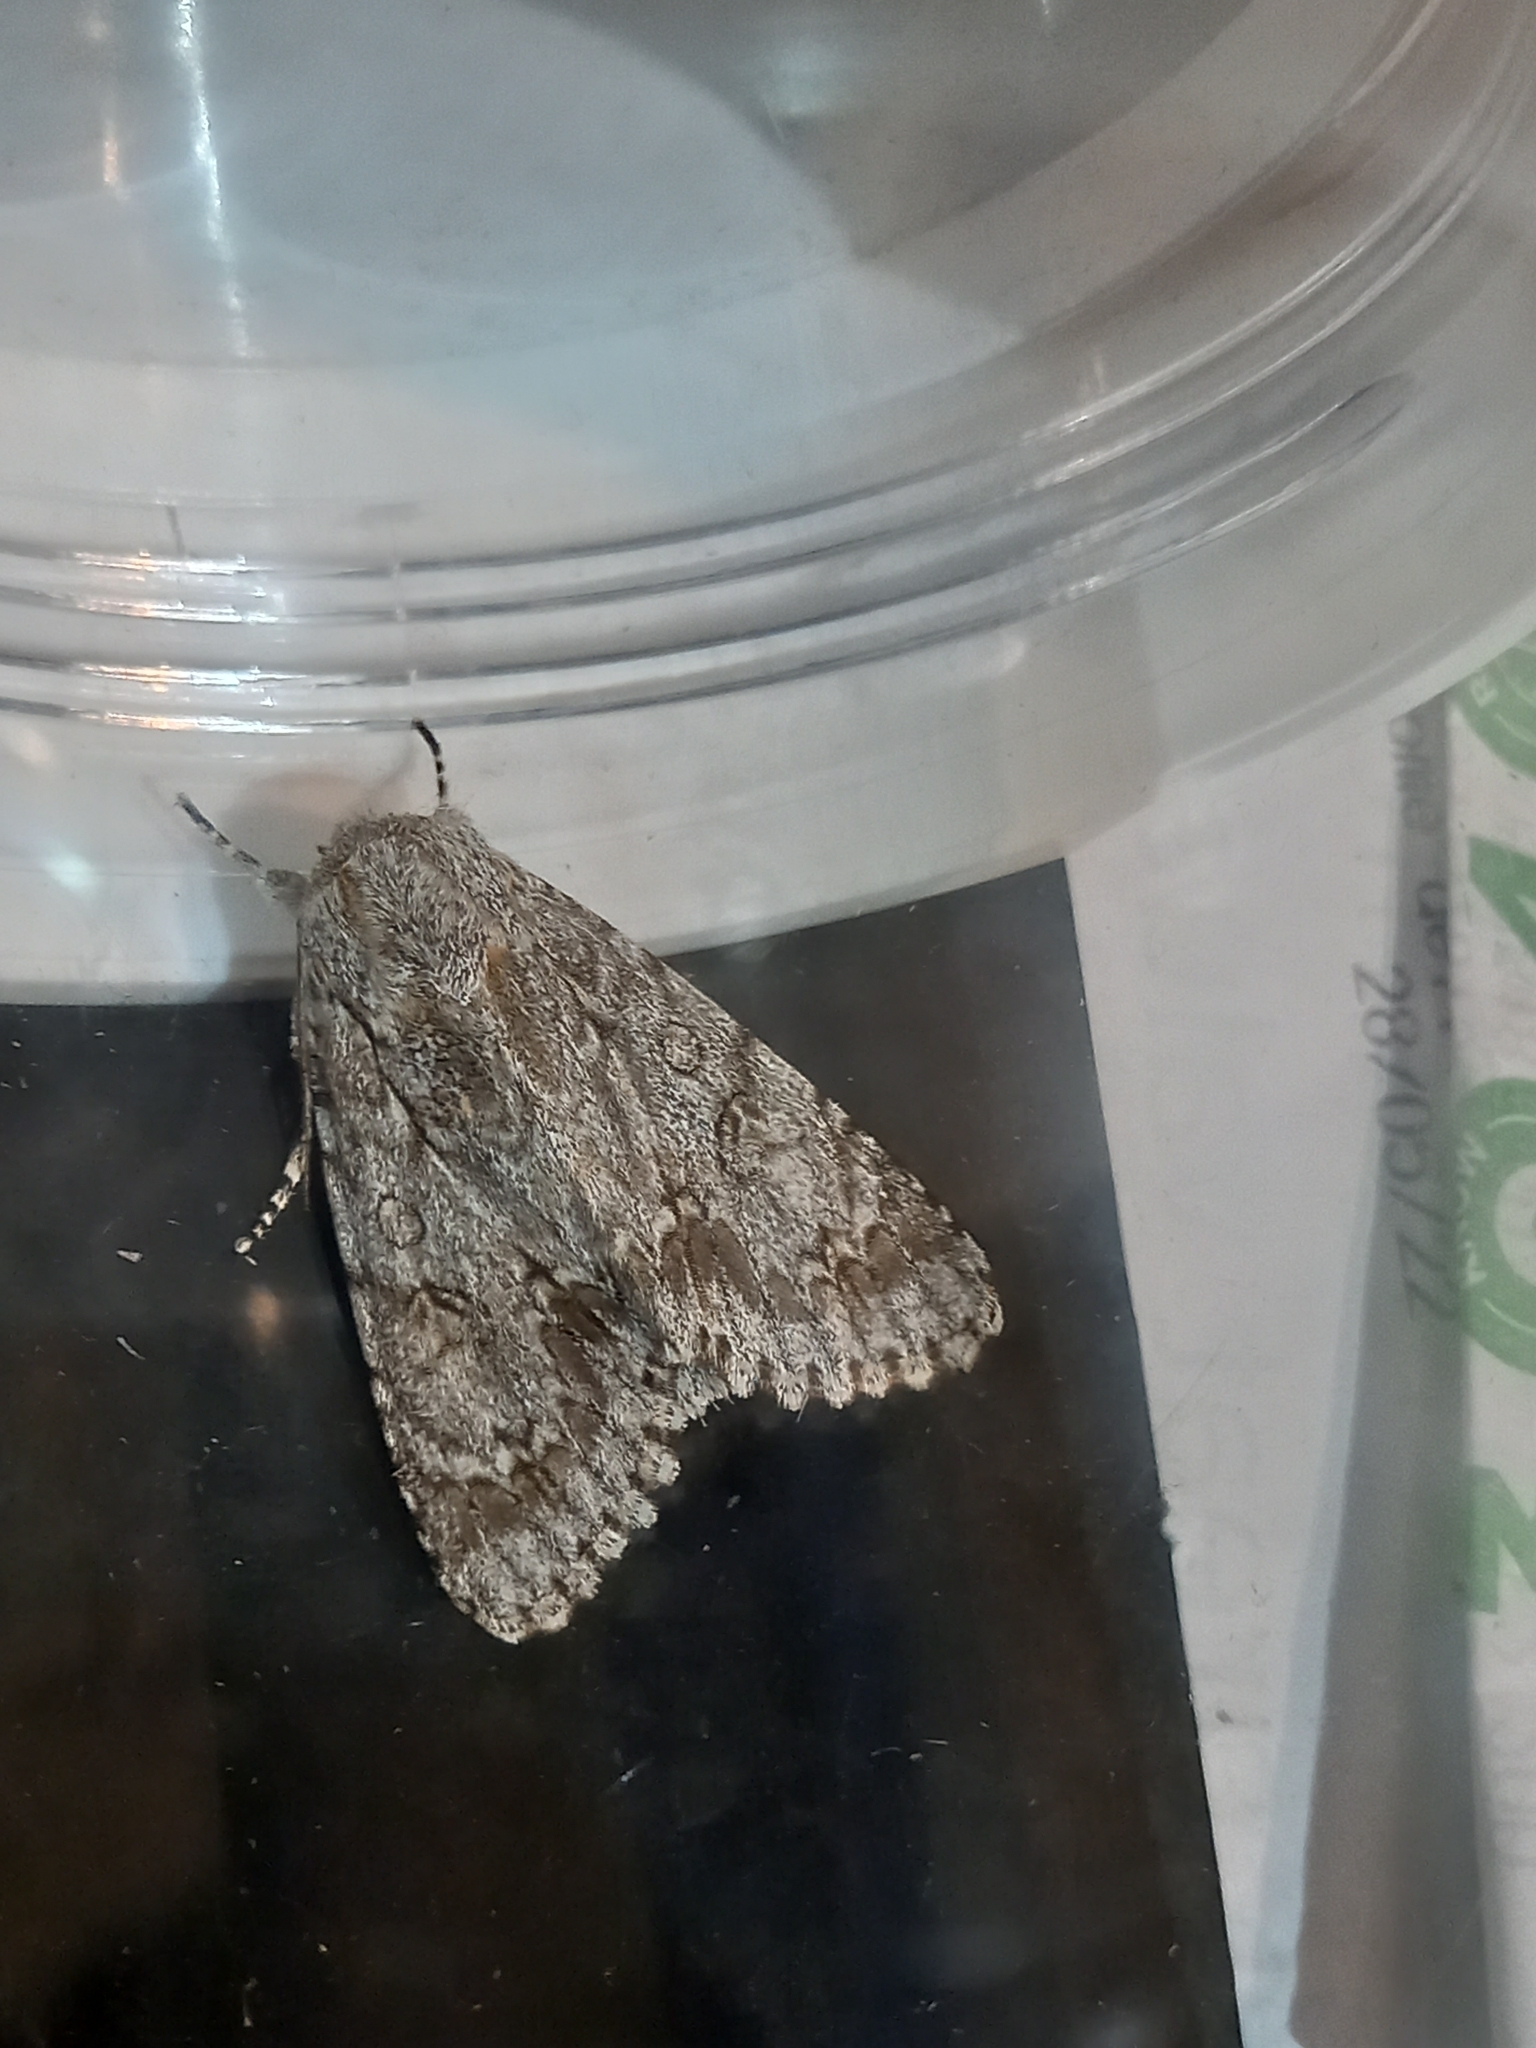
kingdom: Animalia
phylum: Arthropoda
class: Insecta
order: Lepidoptera
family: Noctuidae
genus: Acronicta
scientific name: Acronicta aceris
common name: Sycamore
